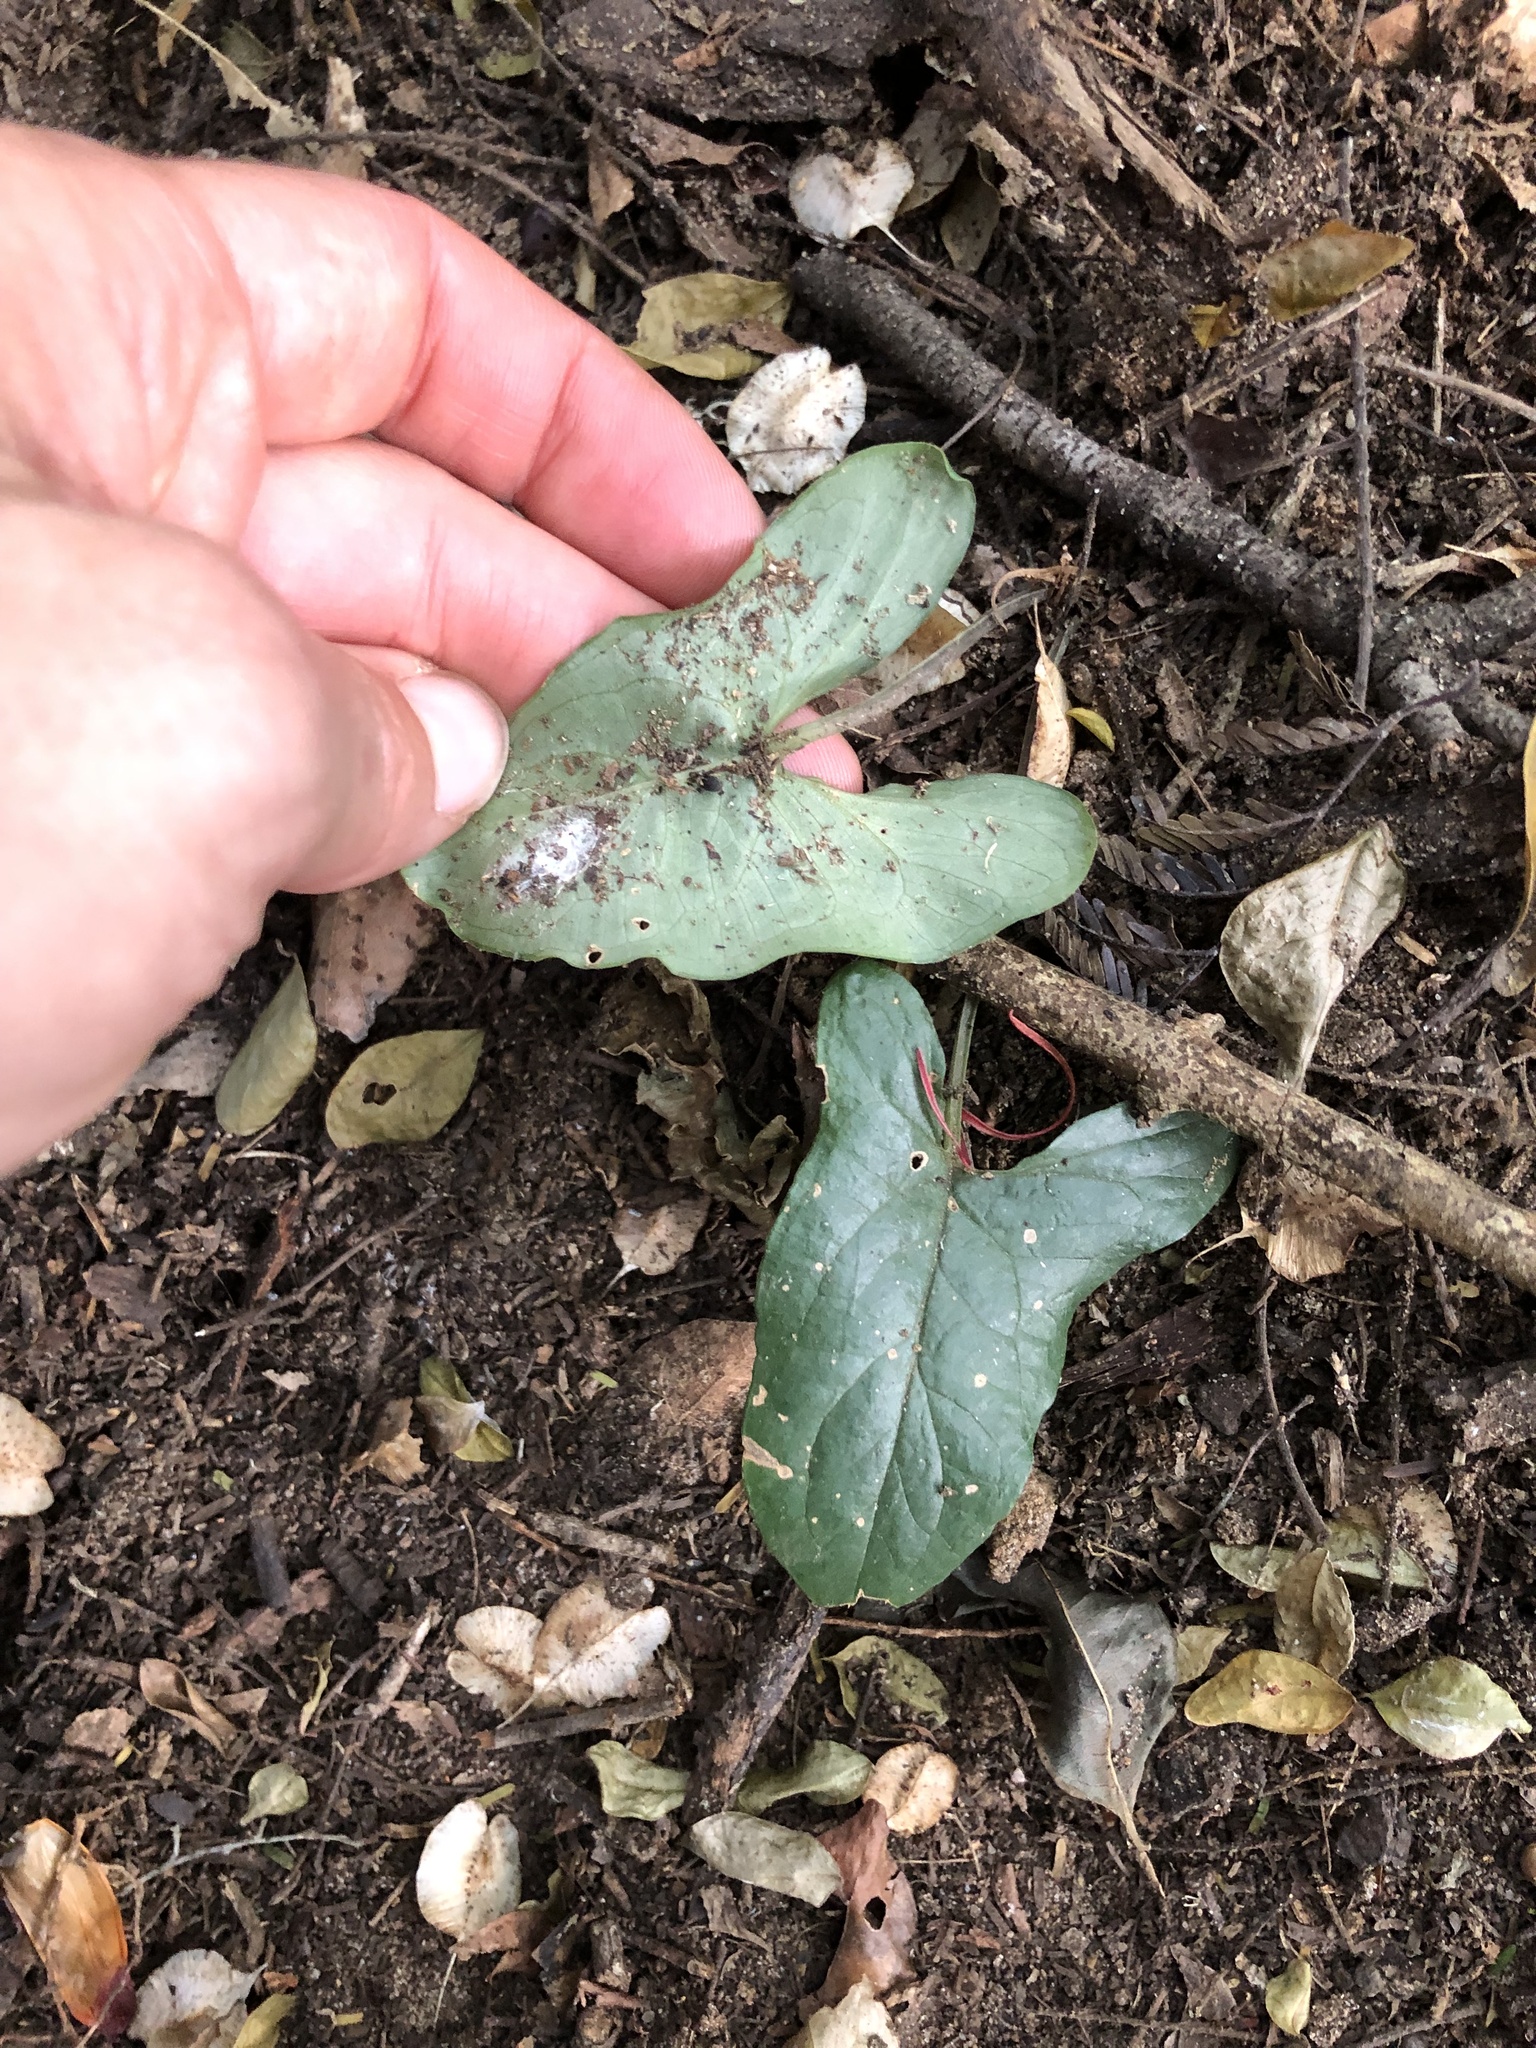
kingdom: Plantae
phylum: Tracheophyta
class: Liliopsida
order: Alismatales
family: Araceae
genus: Stylochaeton
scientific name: Stylochaeton natalensis
